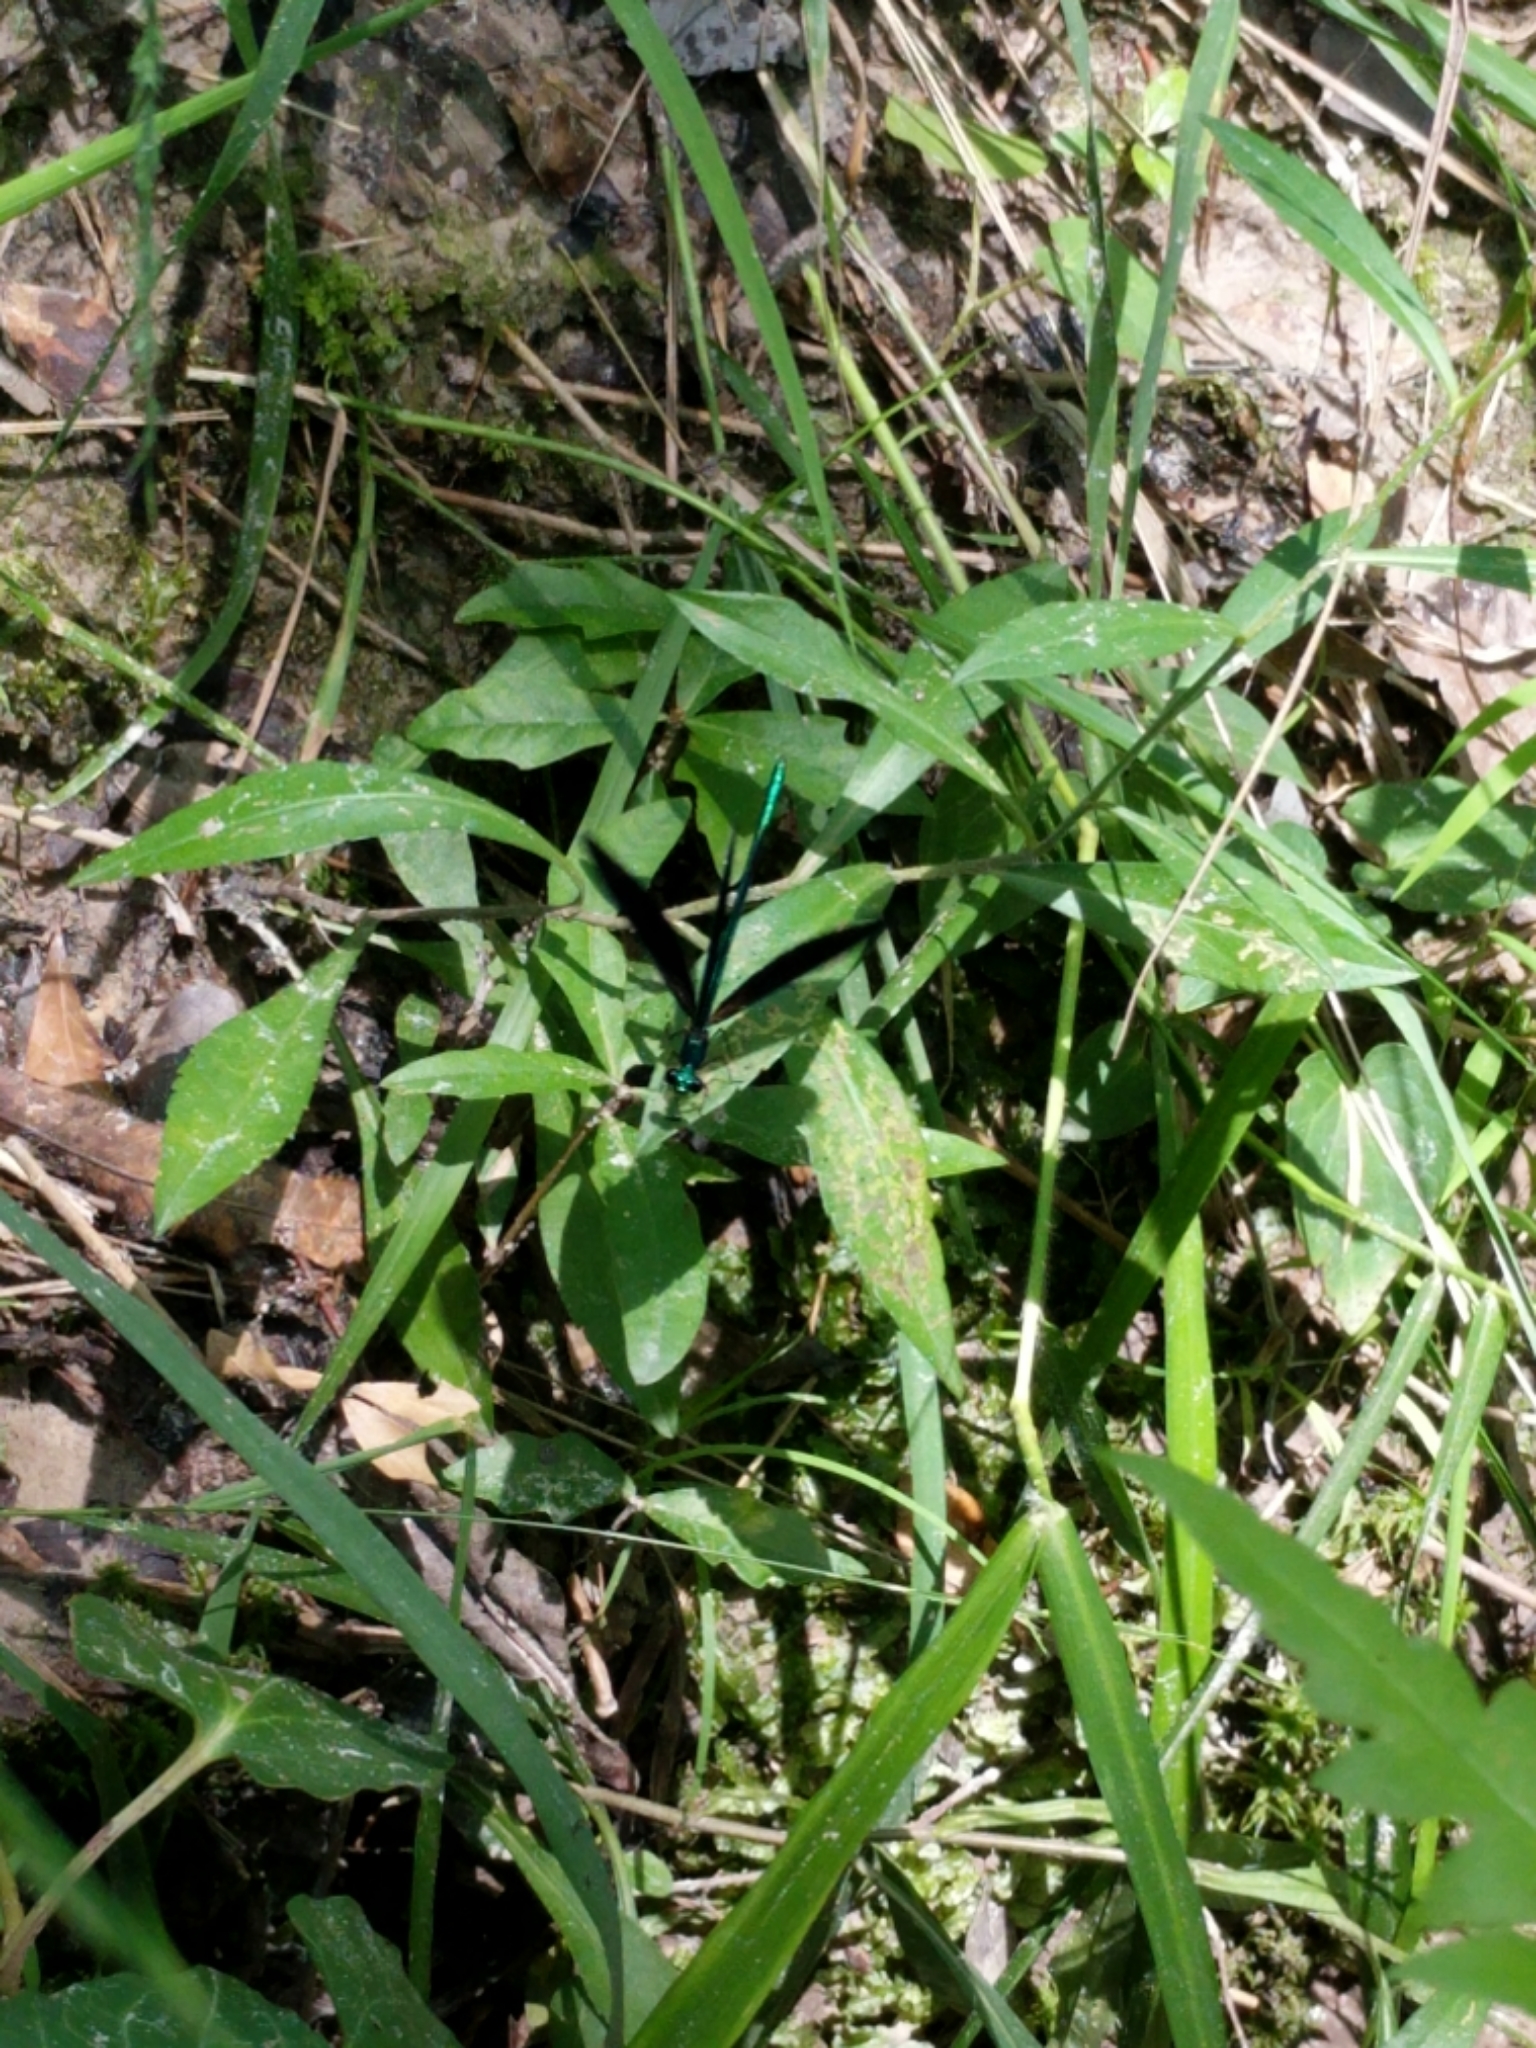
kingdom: Animalia
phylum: Arthropoda
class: Insecta
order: Odonata
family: Calopterygidae
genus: Calopteryx
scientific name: Calopteryx maculata
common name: Ebony jewelwing
